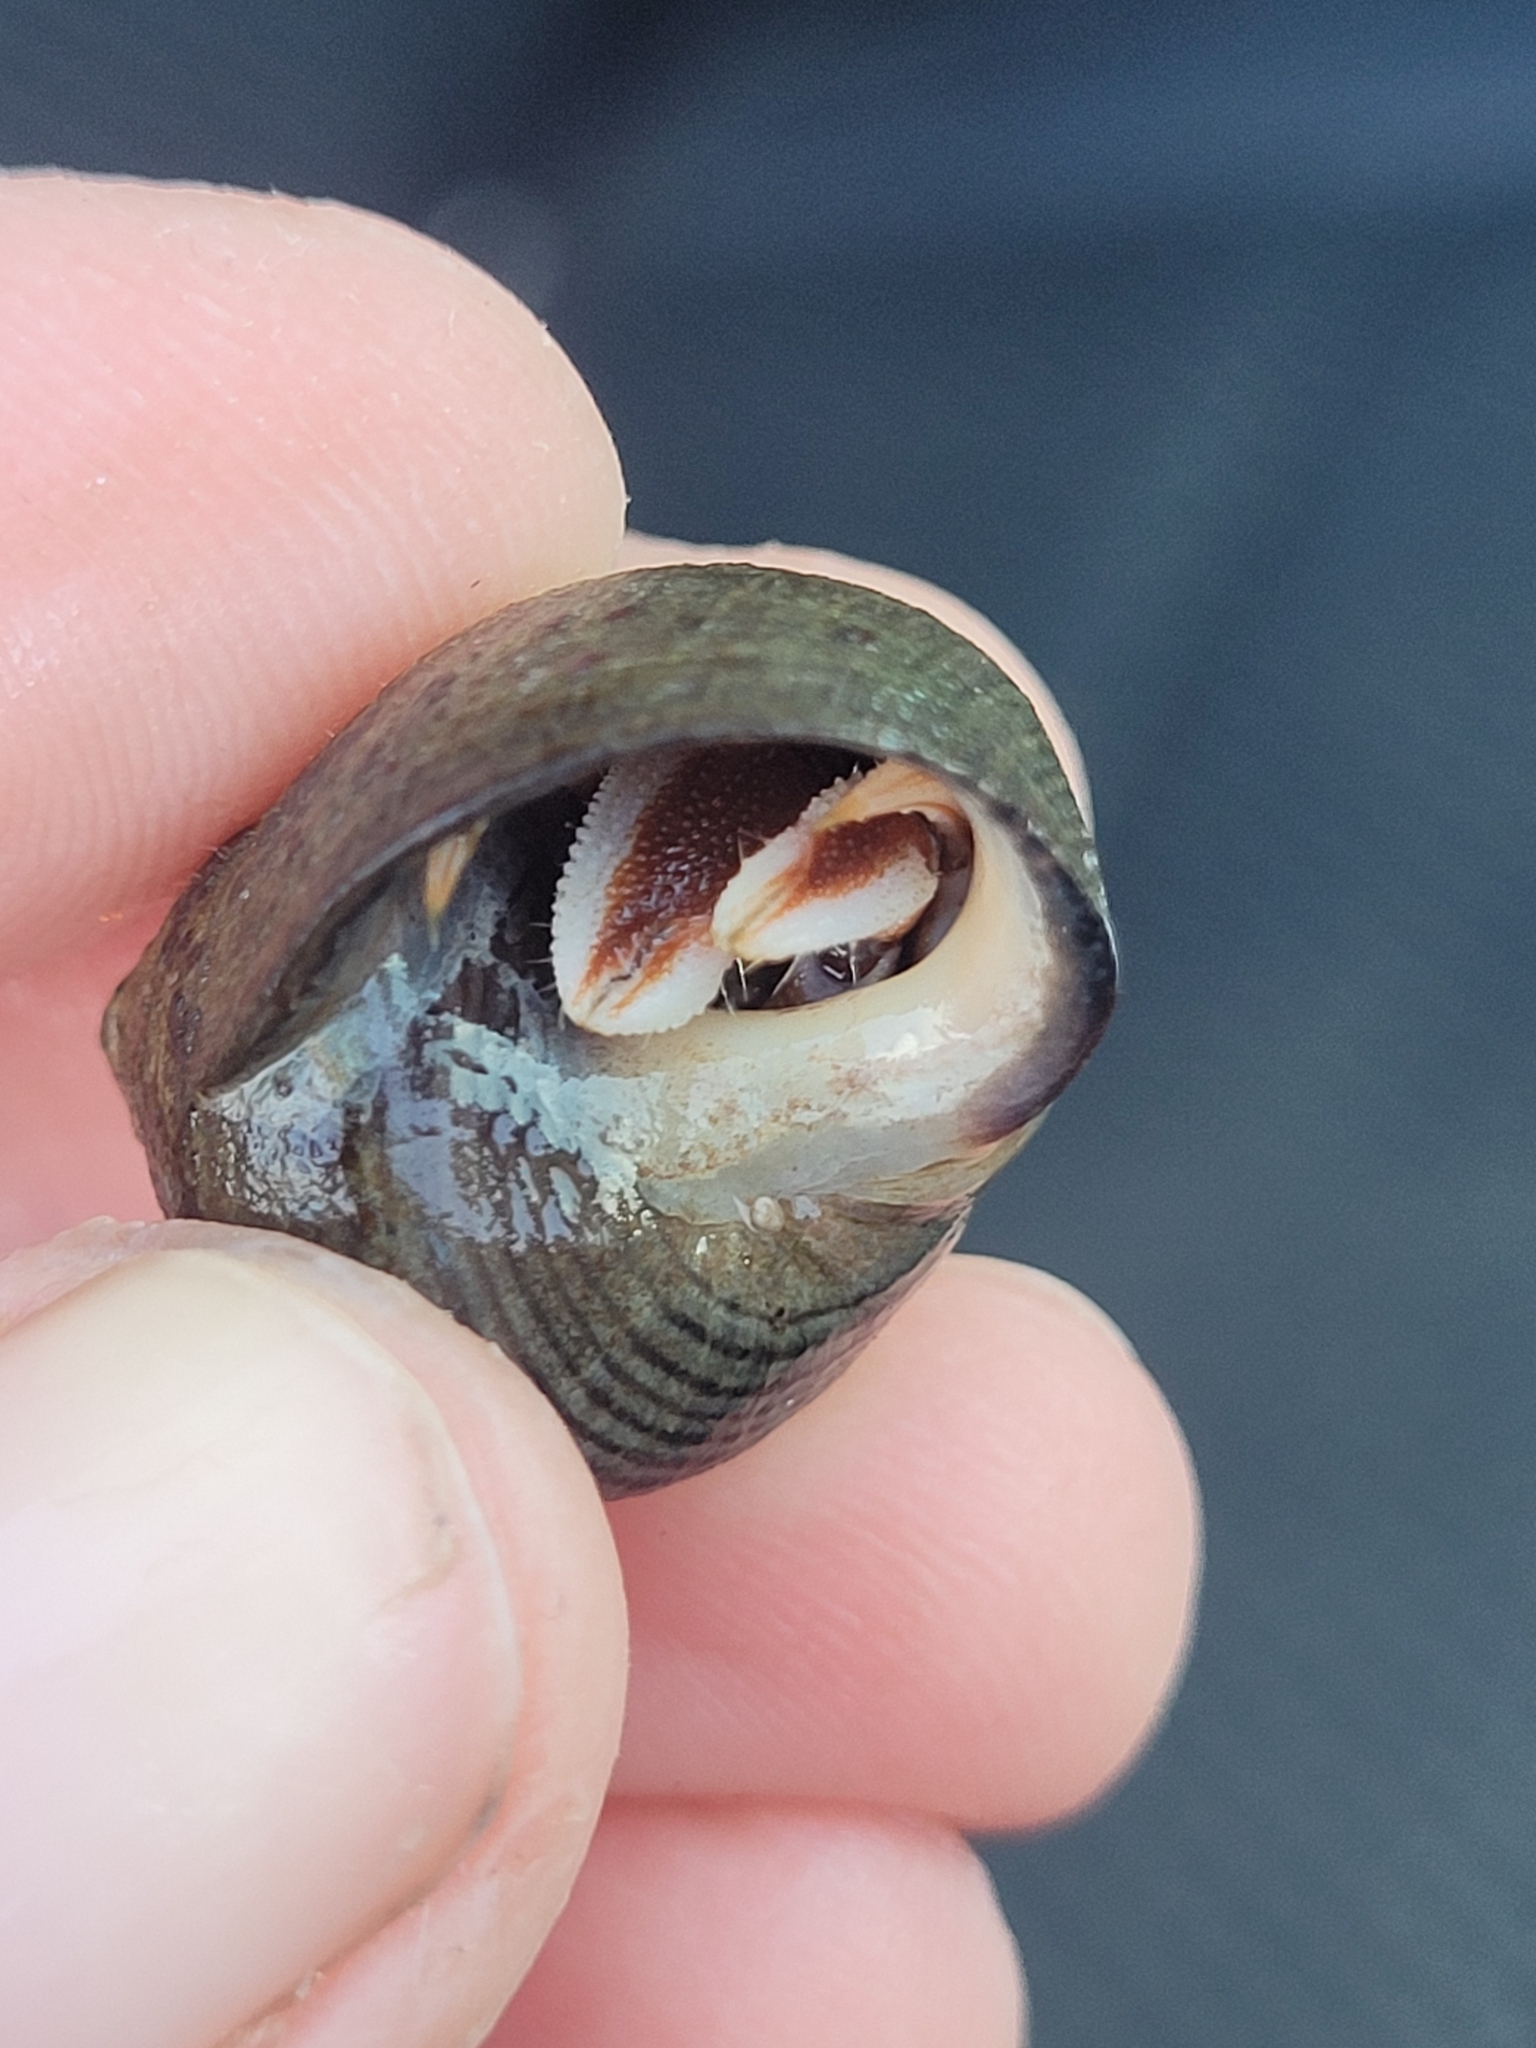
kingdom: Animalia
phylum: Arthropoda
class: Malacostraca
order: Decapoda
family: Paguridae
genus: Pagurus
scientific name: Pagurus acadianus
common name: Acadian hermit crab
